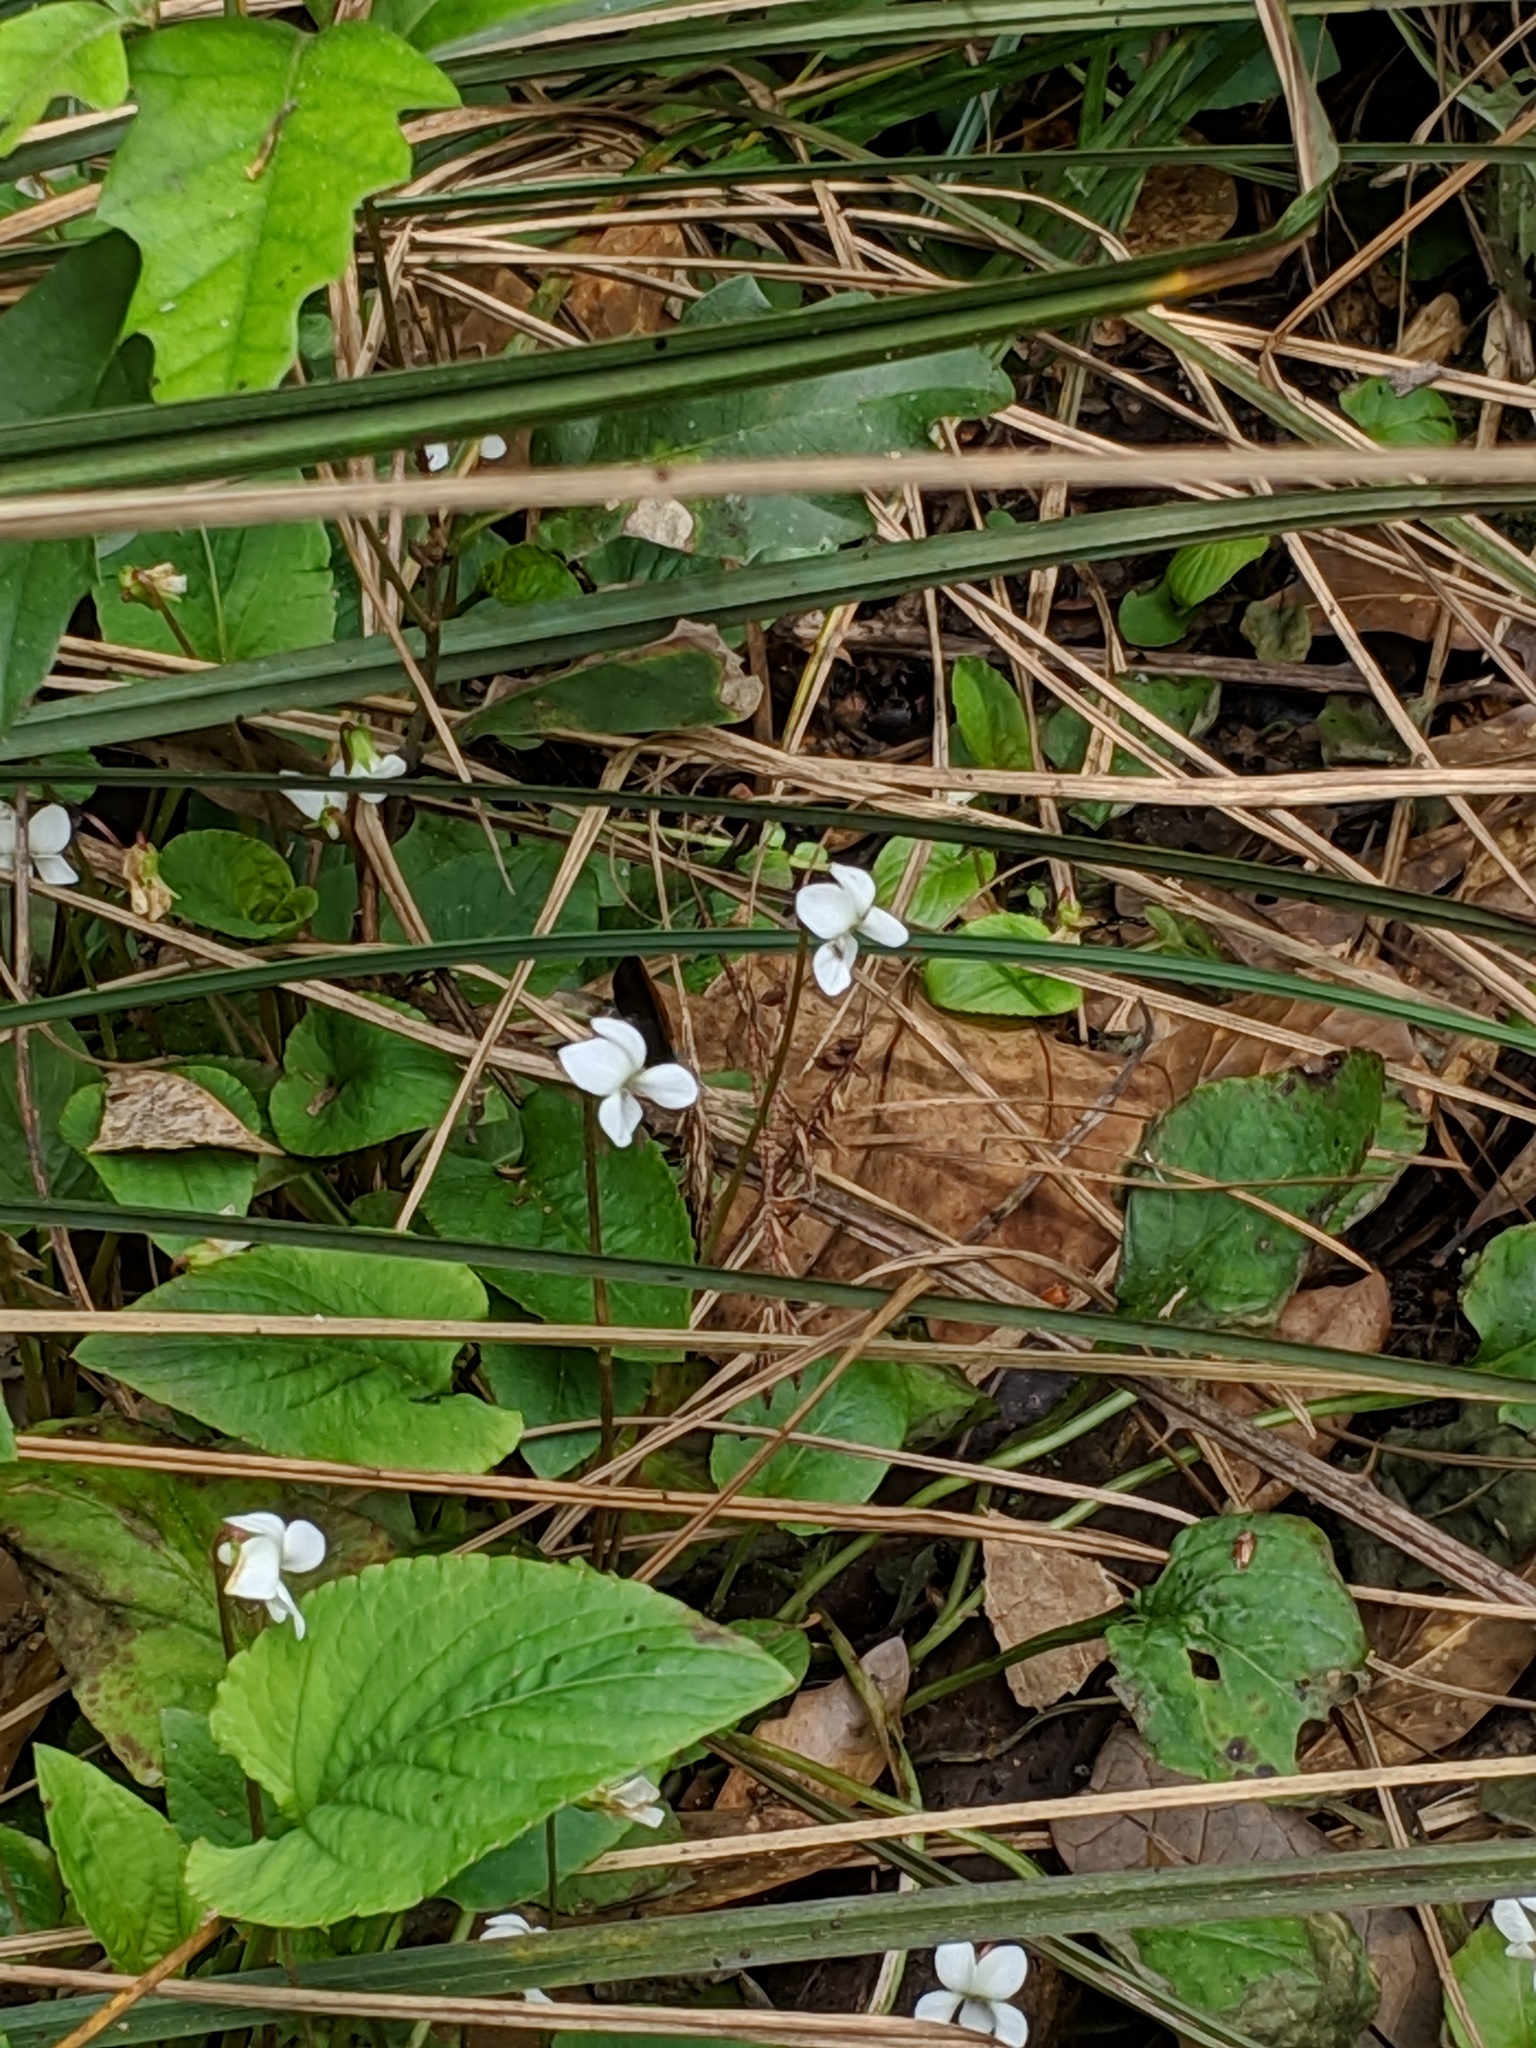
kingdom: Plantae
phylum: Tracheophyta
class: Magnoliopsida
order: Malpighiales
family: Violaceae
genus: Viola
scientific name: Viola primulifolia
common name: Primrose-leaf violet
